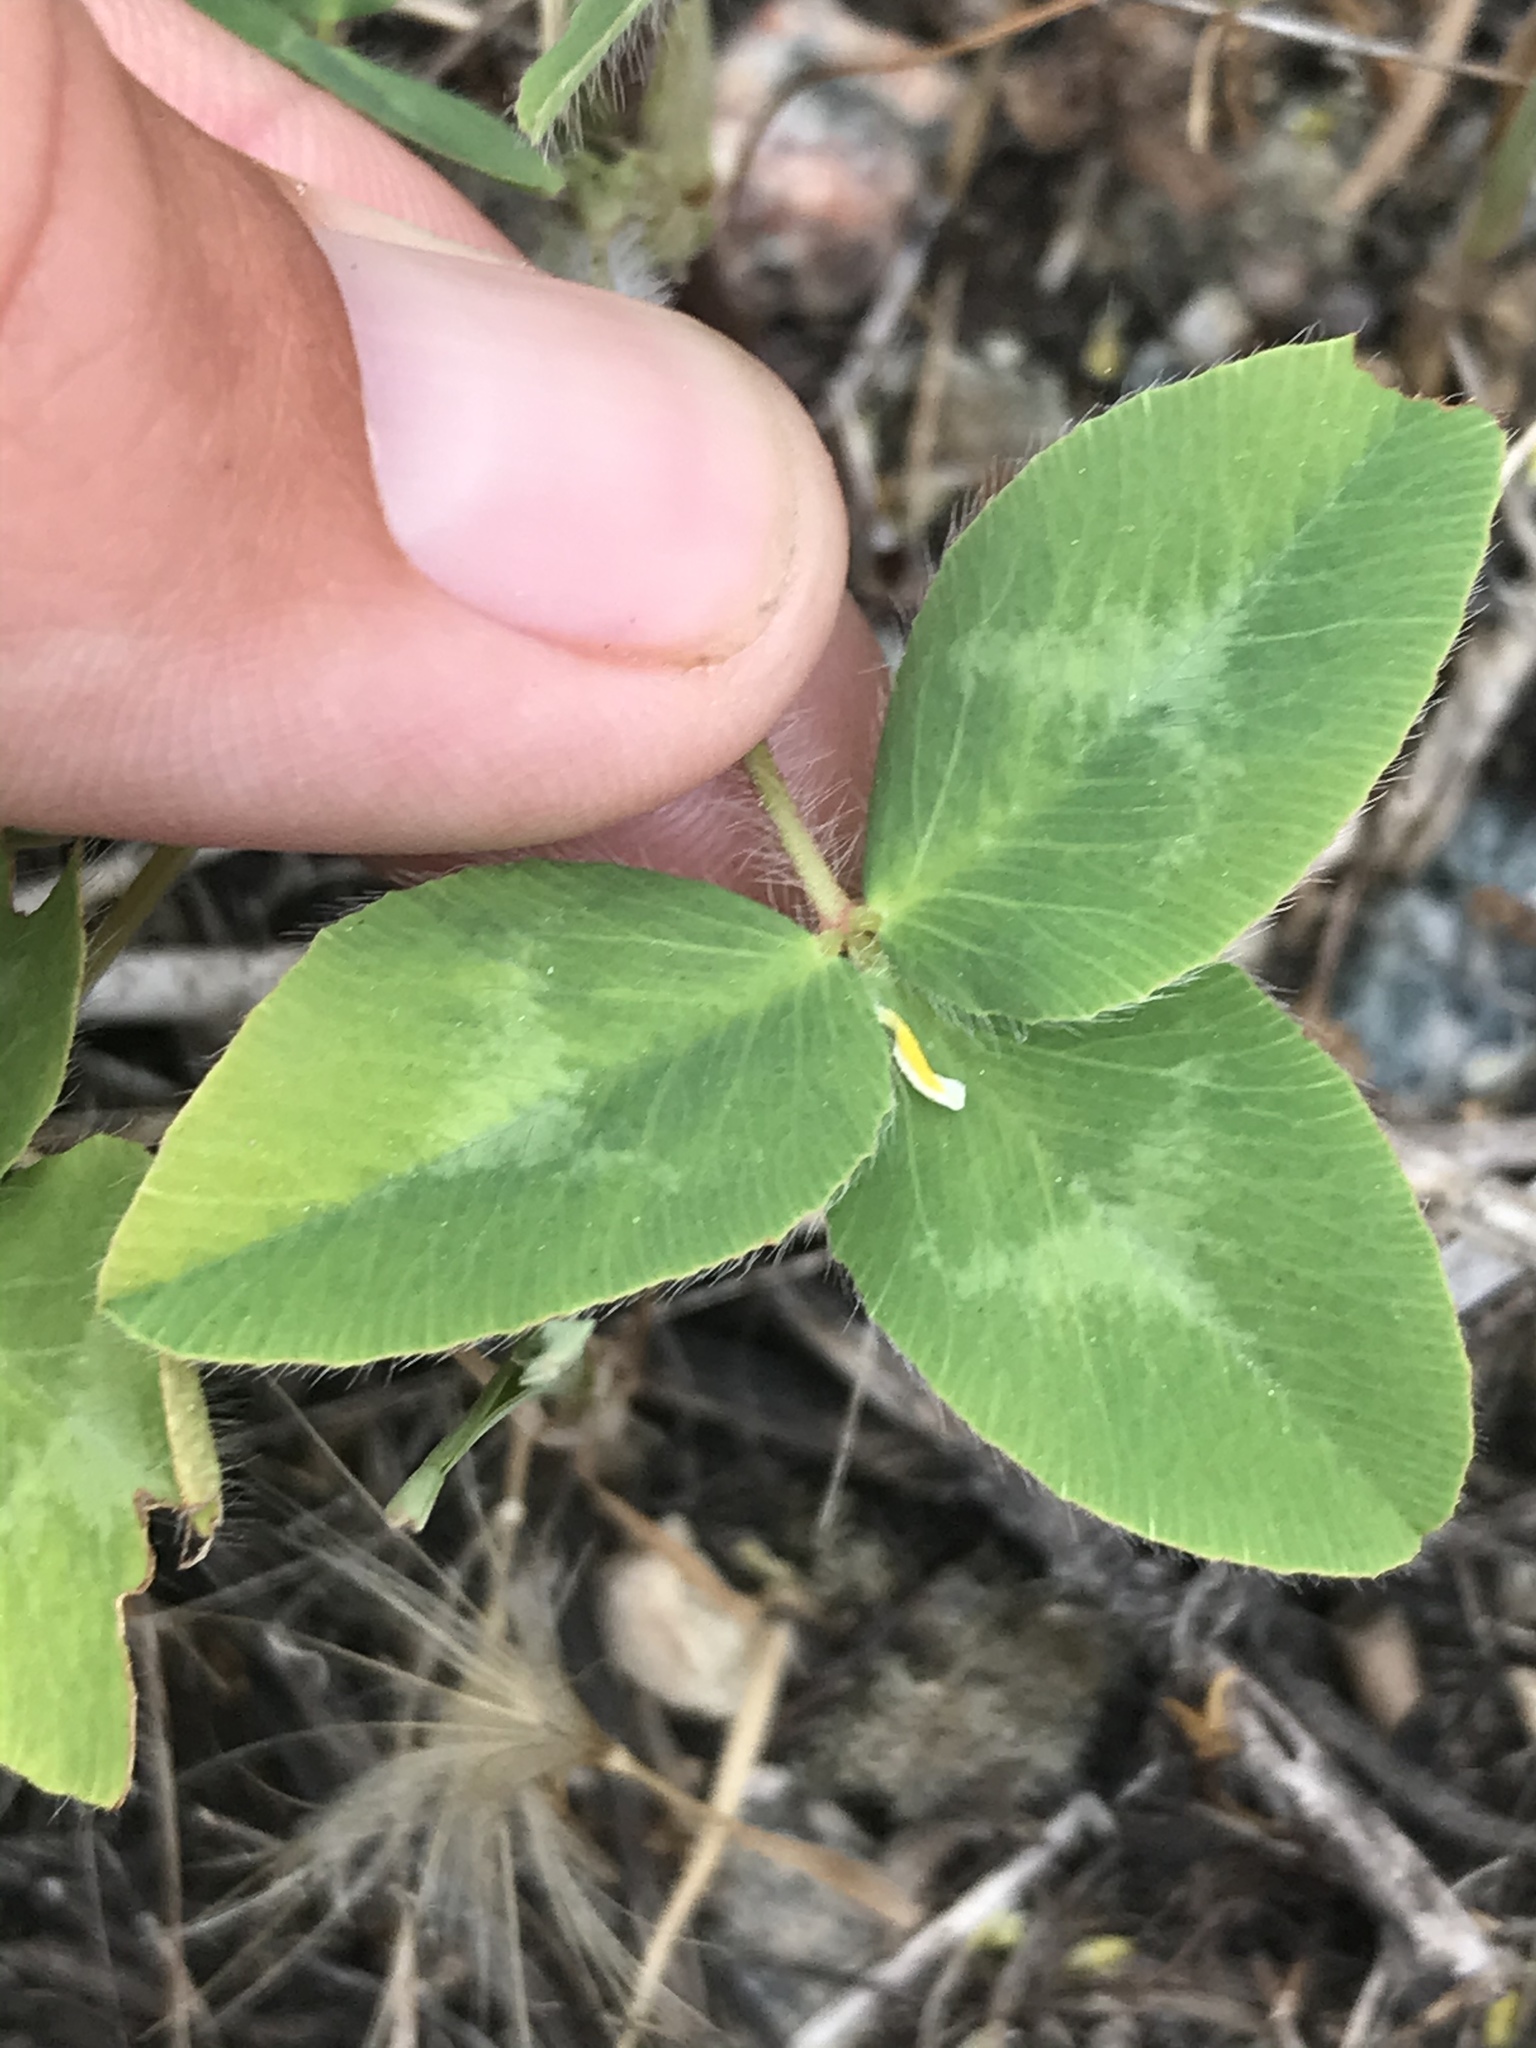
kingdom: Plantae
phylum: Tracheophyta
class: Magnoliopsida
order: Fabales
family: Fabaceae
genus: Trifolium
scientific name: Trifolium pratense
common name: Red clover
